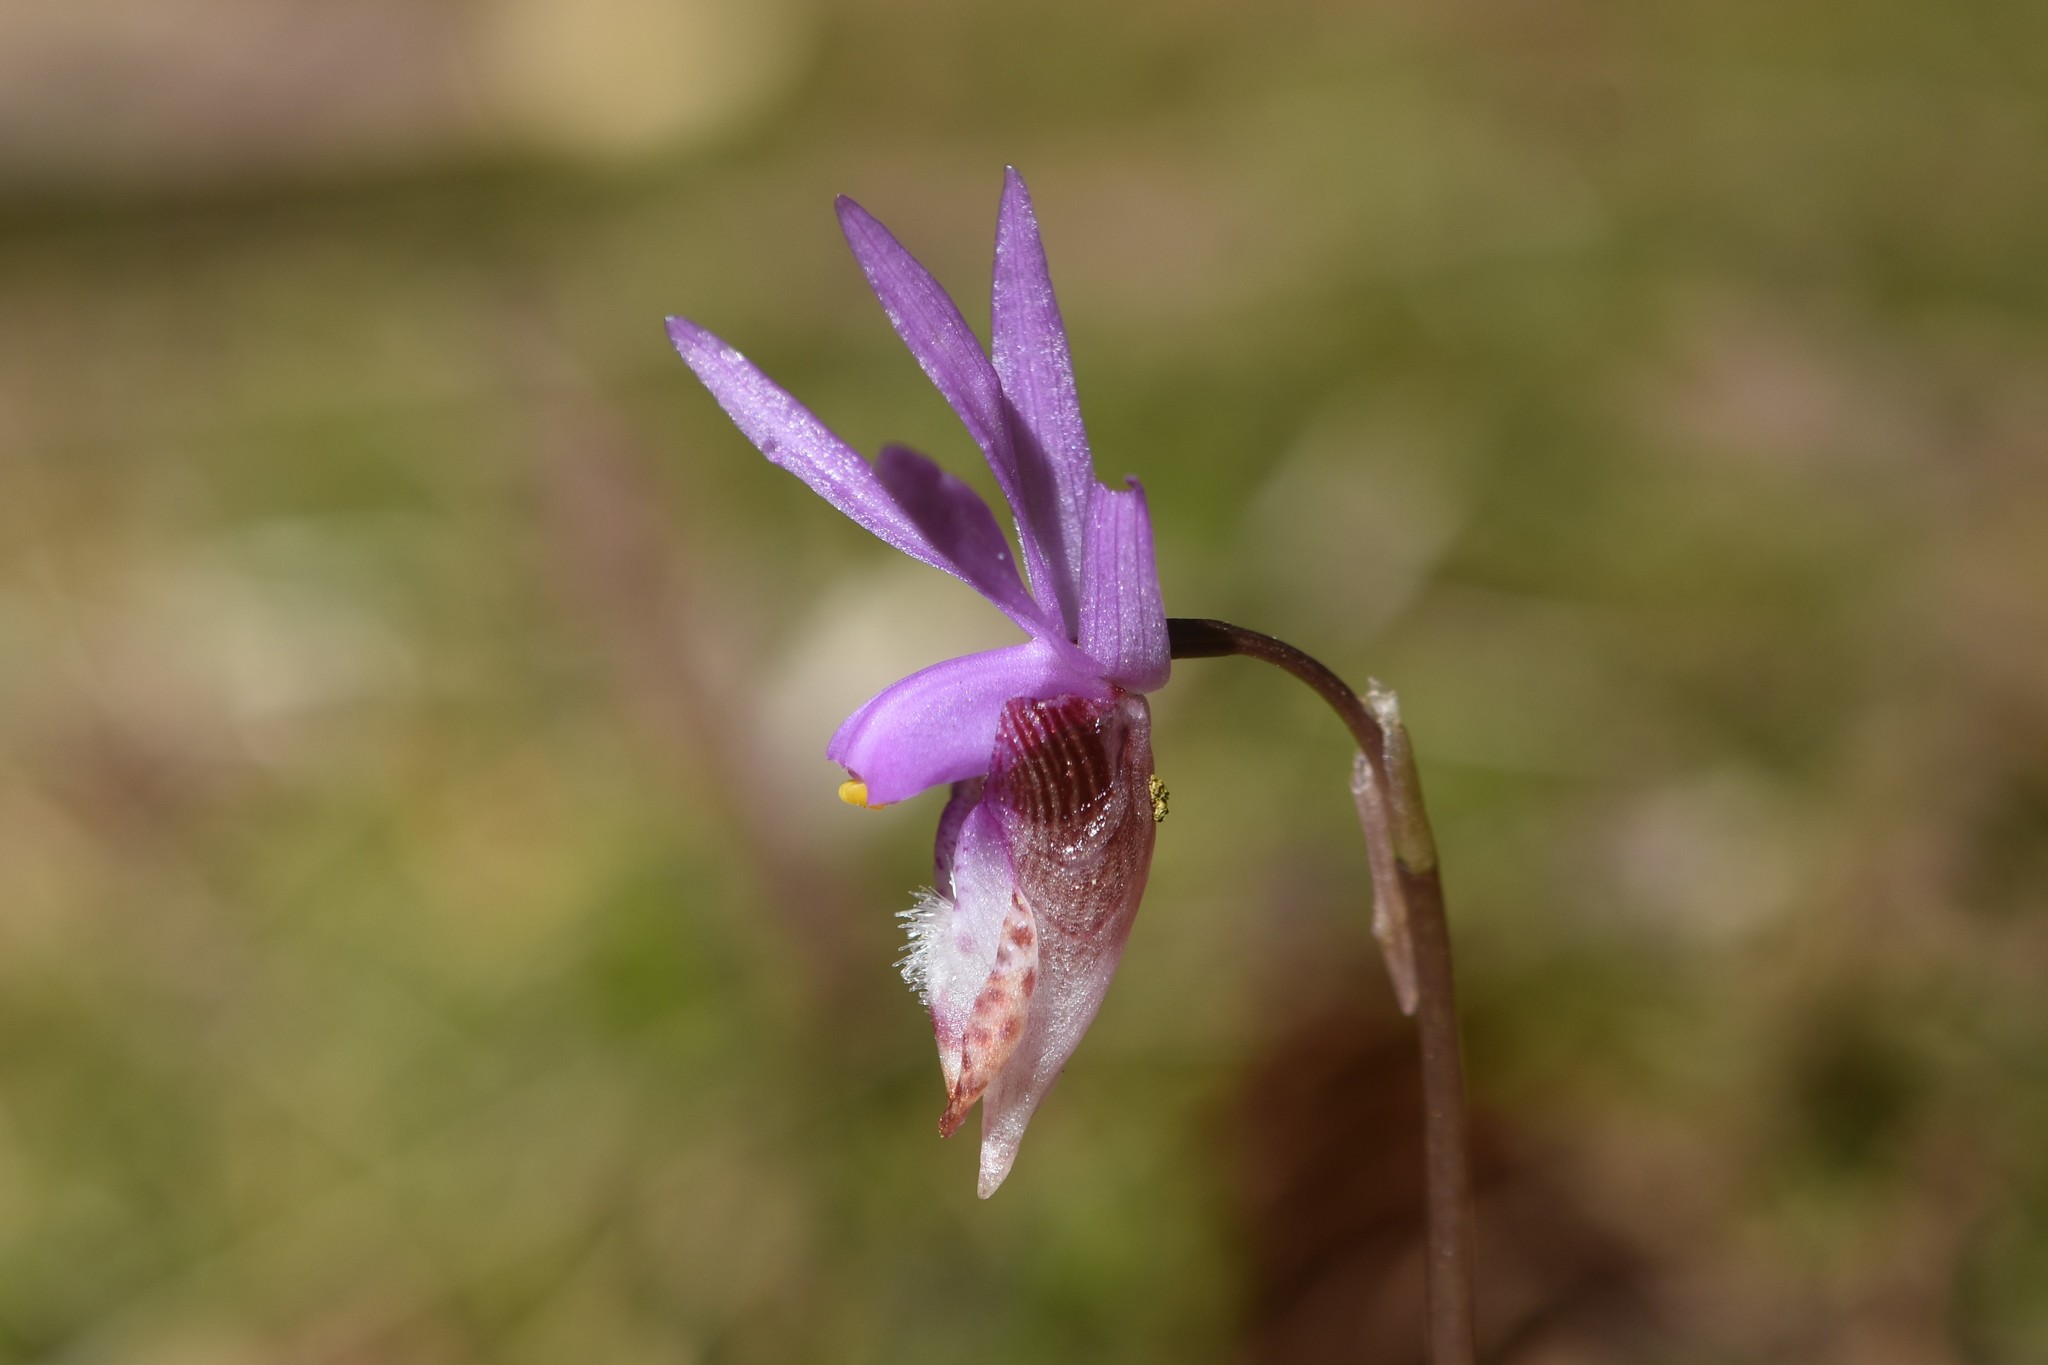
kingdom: Plantae
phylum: Tracheophyta
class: Liliopsida
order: Asparagales
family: Orchidaceae
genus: Calypso
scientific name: Calypso bulbosa
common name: Calypso
